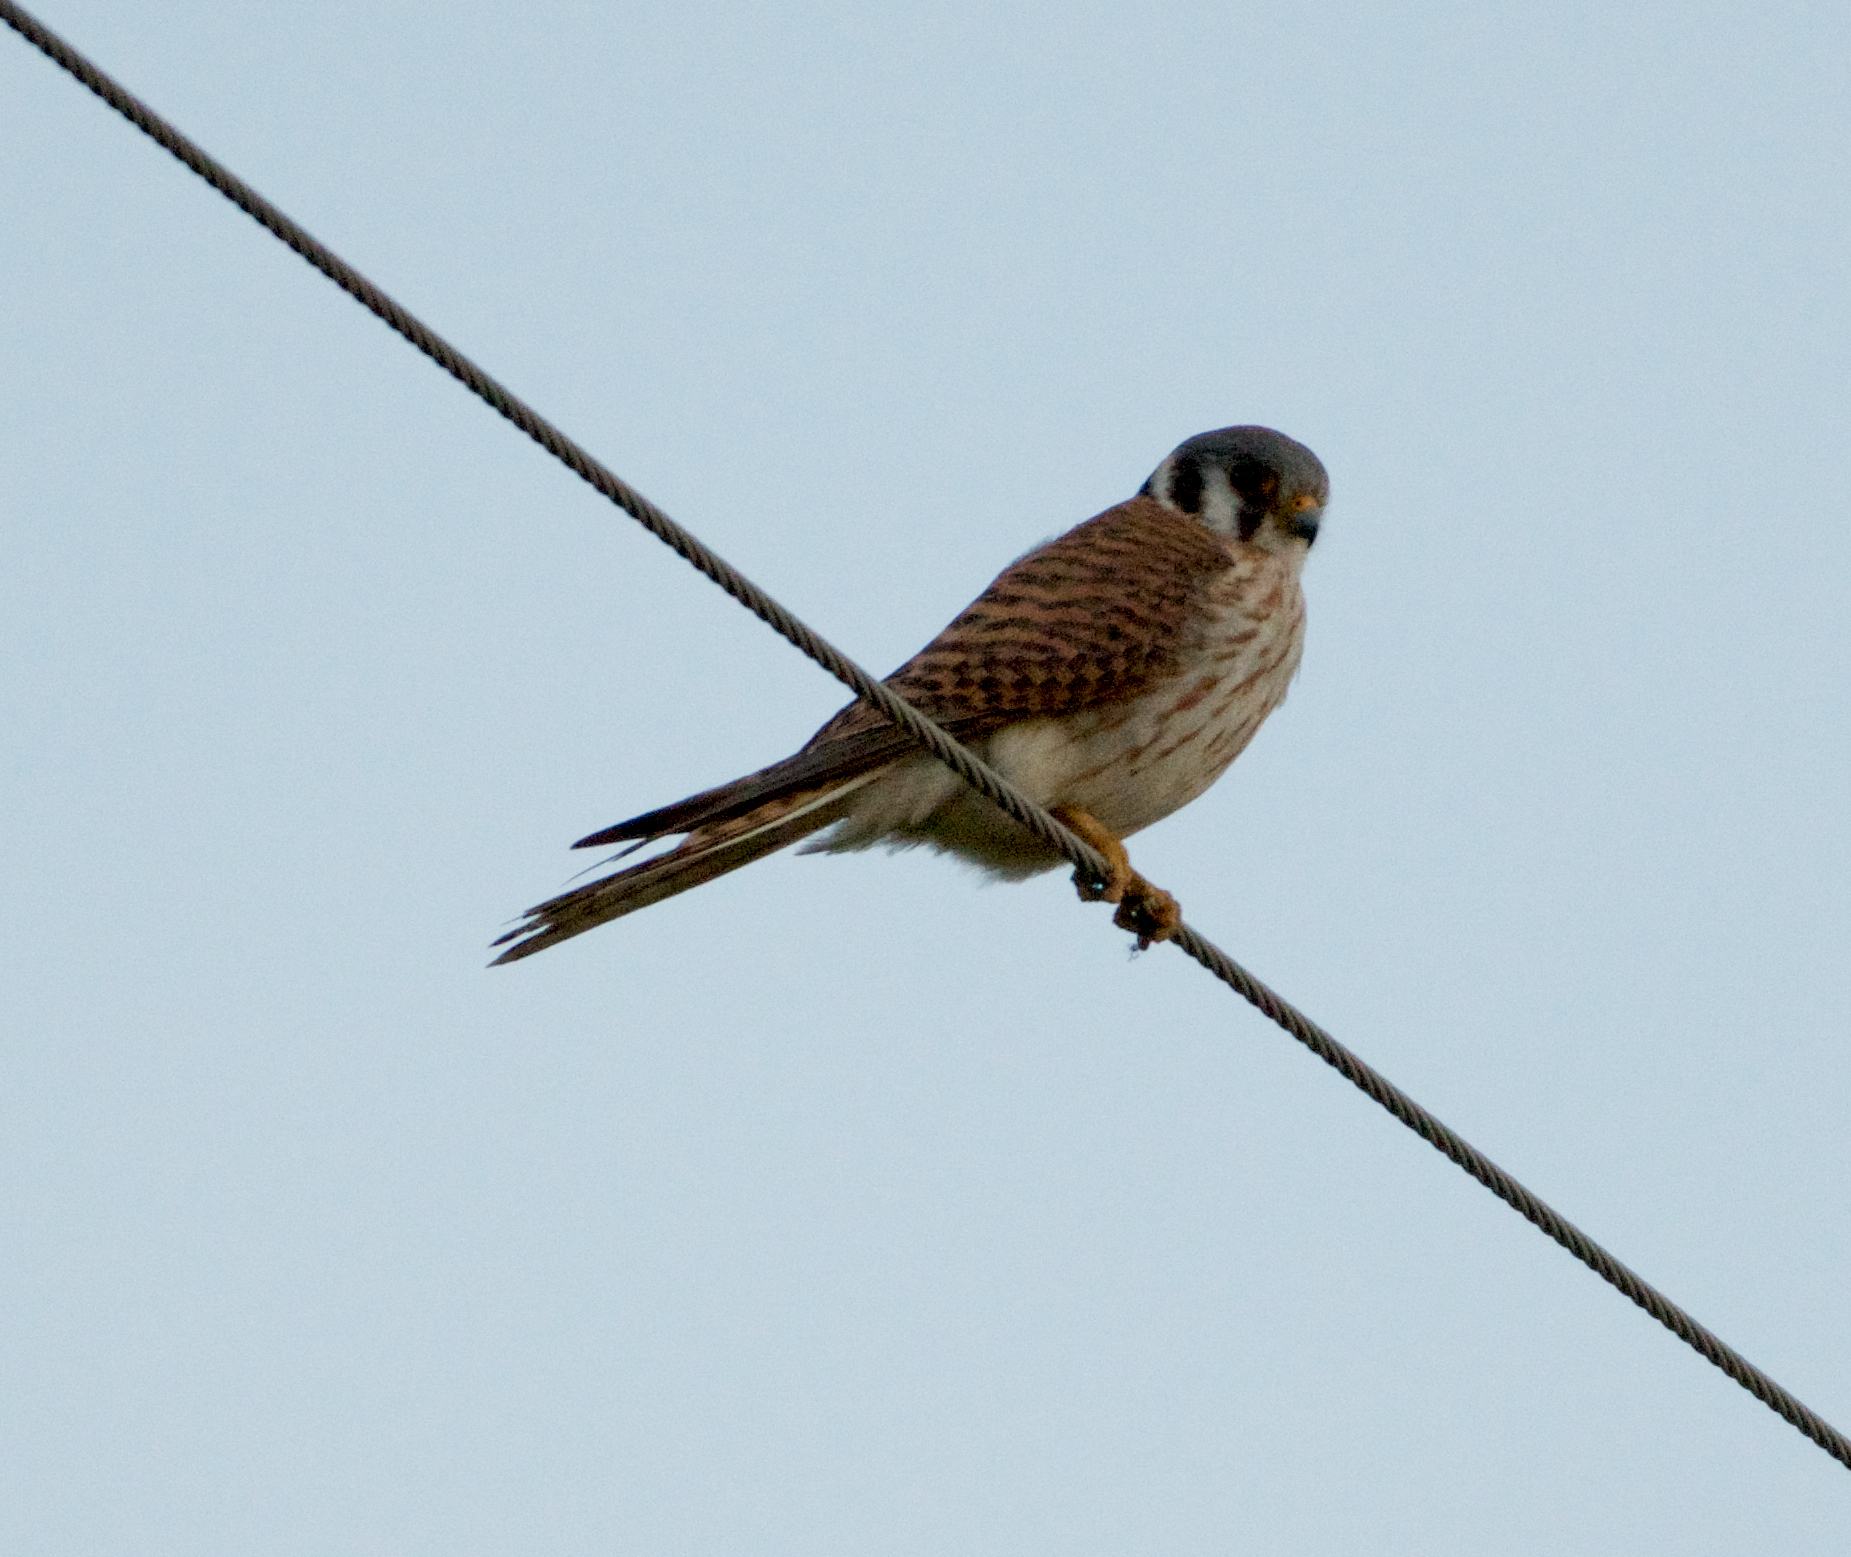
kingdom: Animalia
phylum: Chordata
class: Aves
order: Falconiformes
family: Falconidae
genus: Falco
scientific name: Falco sparverius
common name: American kestrel
